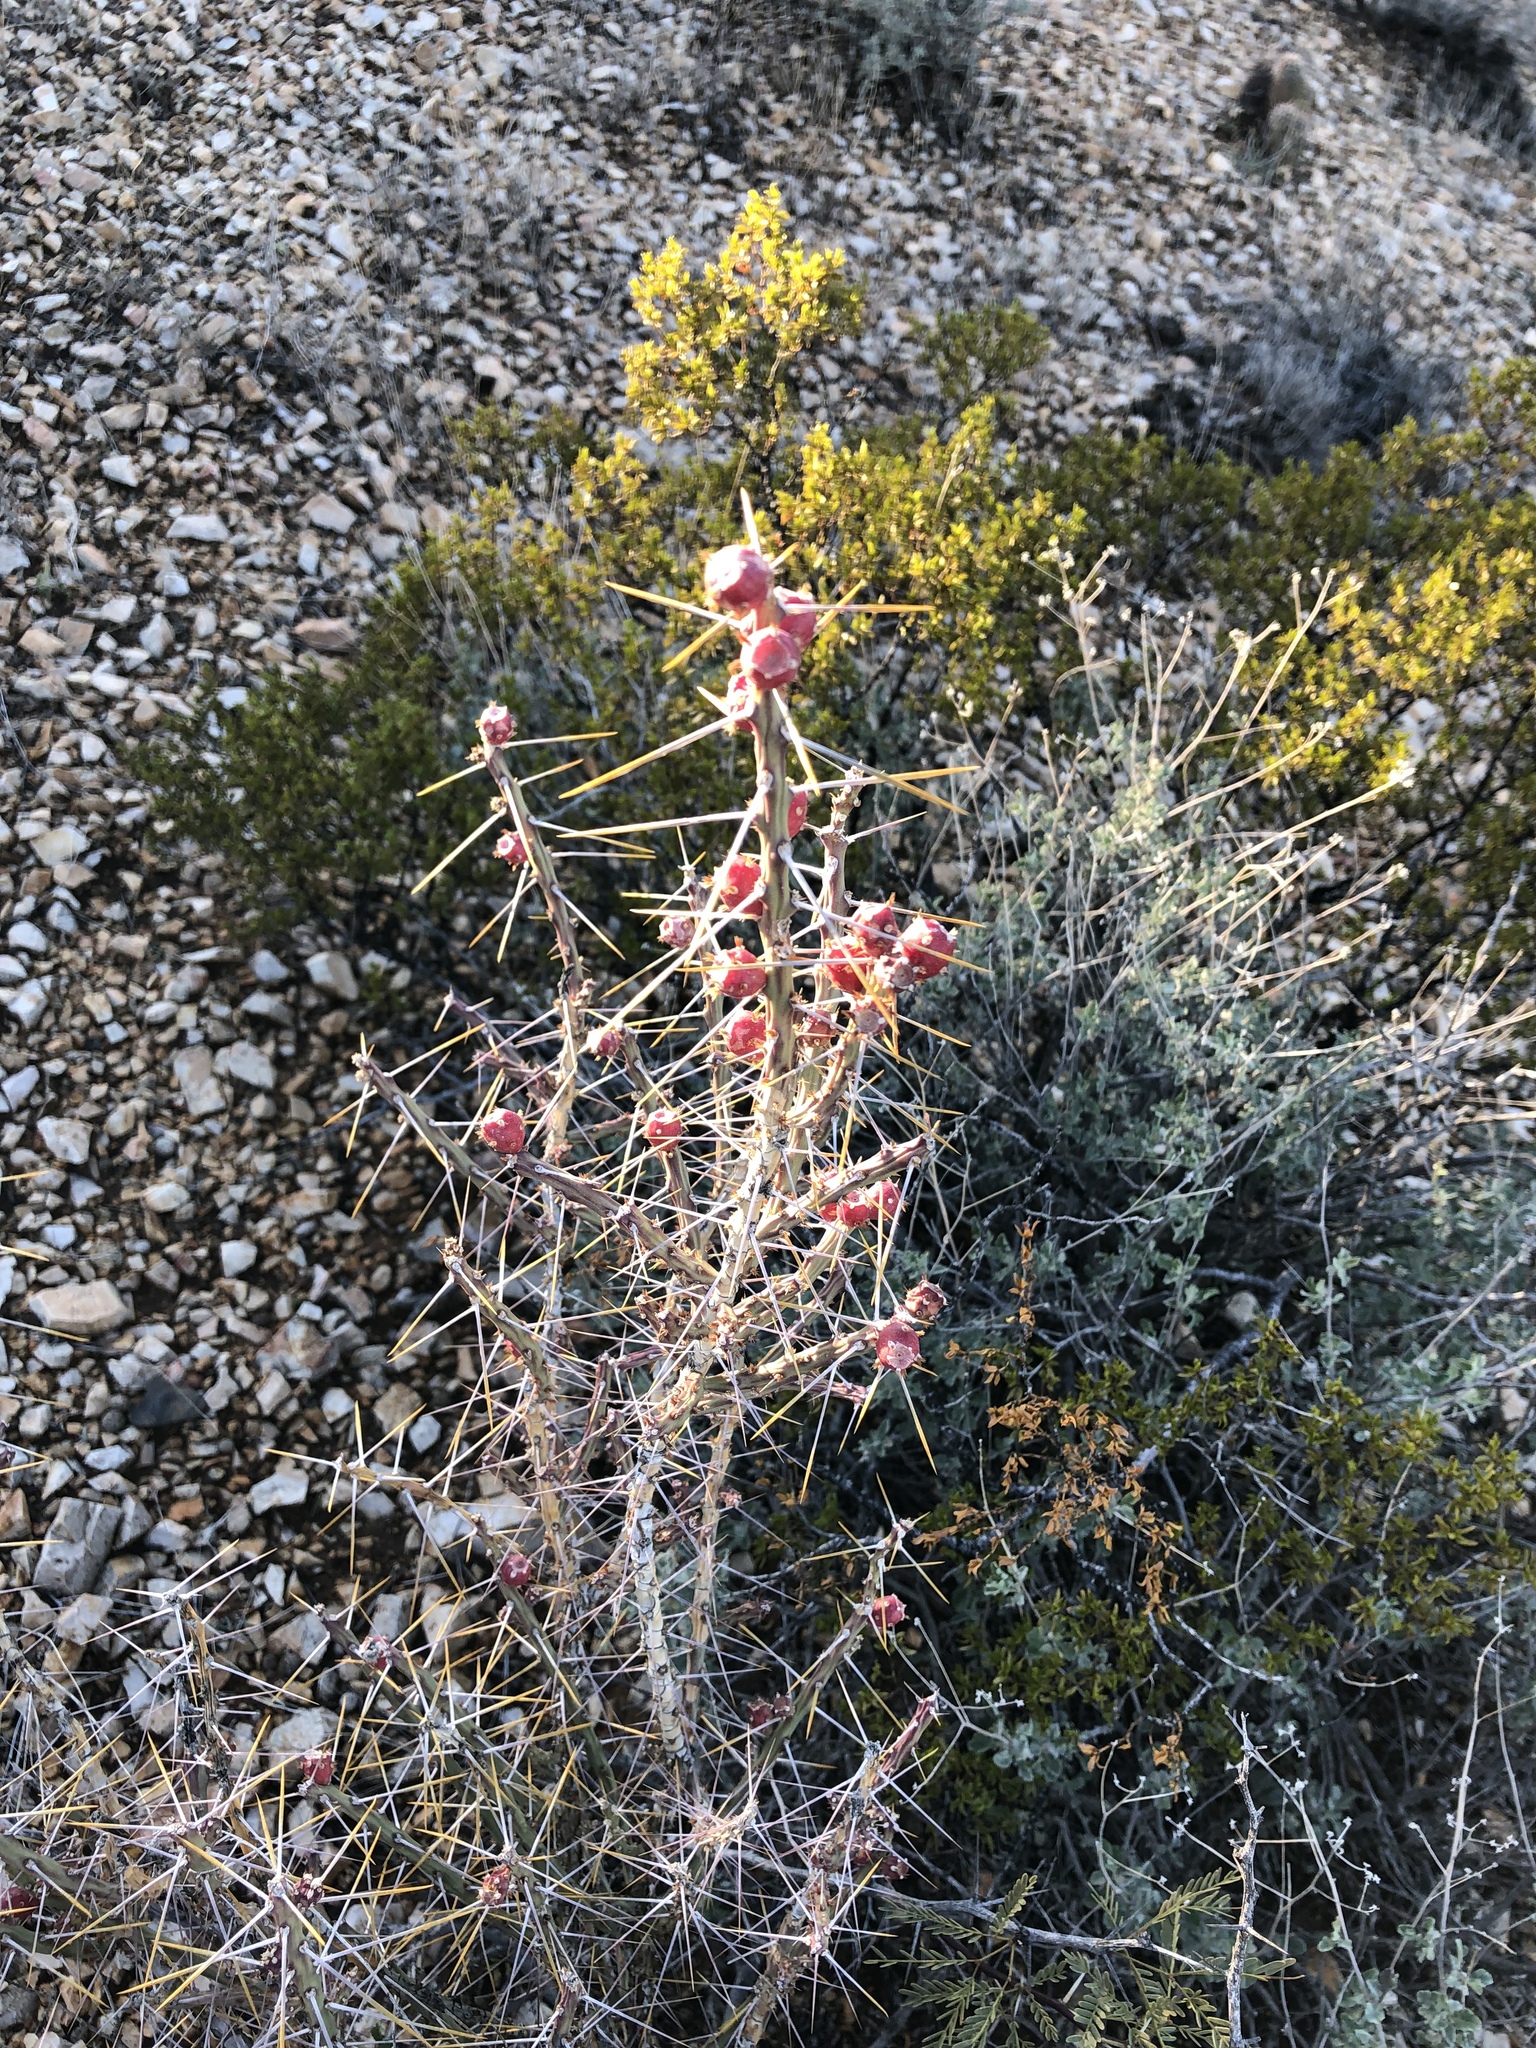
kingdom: Plantae
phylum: Tracheophyta
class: Magnoliopsida
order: Caryophyllales
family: Cactaceae
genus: Cylindropuntia
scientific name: Cylindropuntia leptocaulis
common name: Christmas cactus
